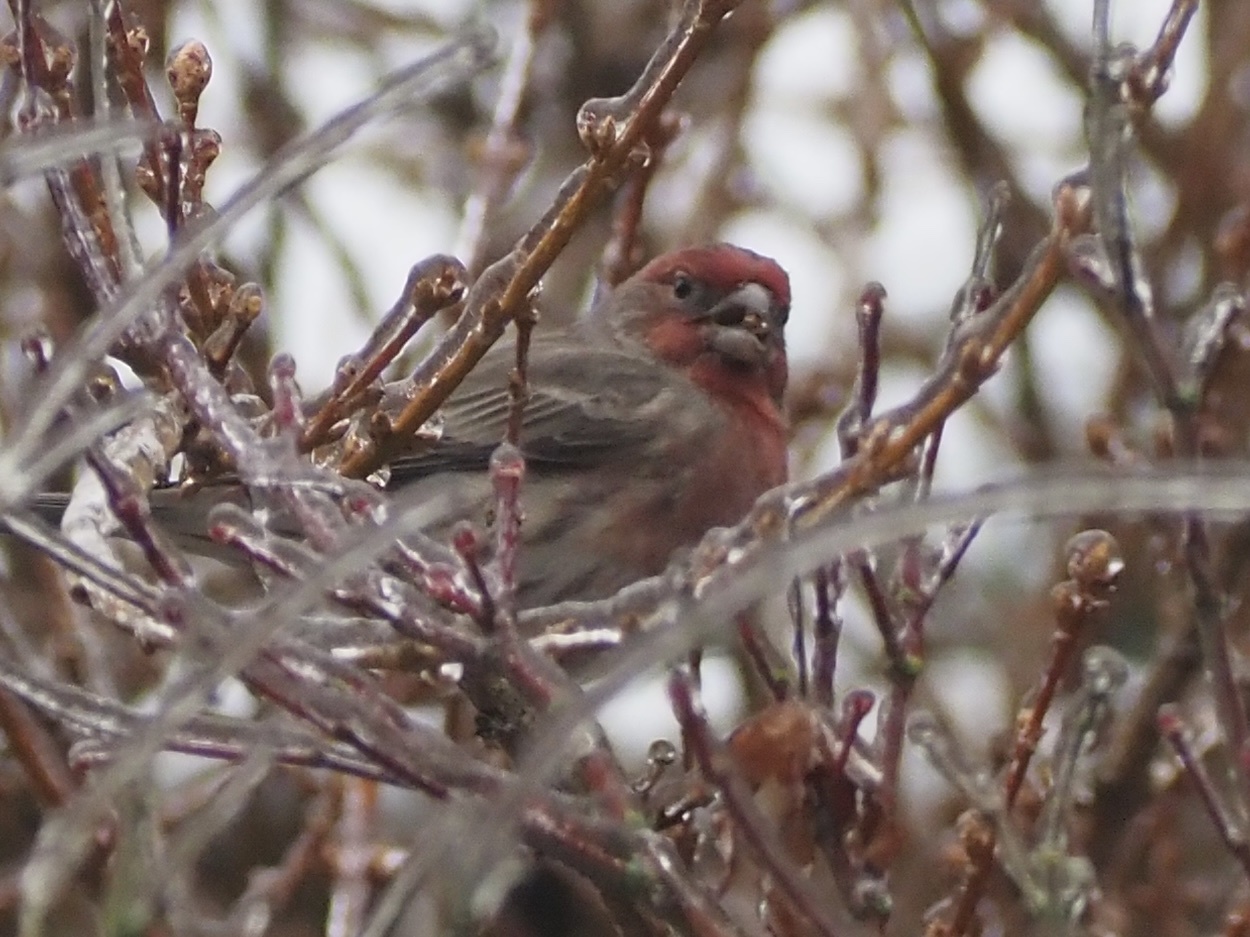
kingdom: Animalia
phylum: Chordata
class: Aves
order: Passeriformes
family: Fringillidae
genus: Haemorhous
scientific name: Haemorhous mexicanus
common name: House finch
